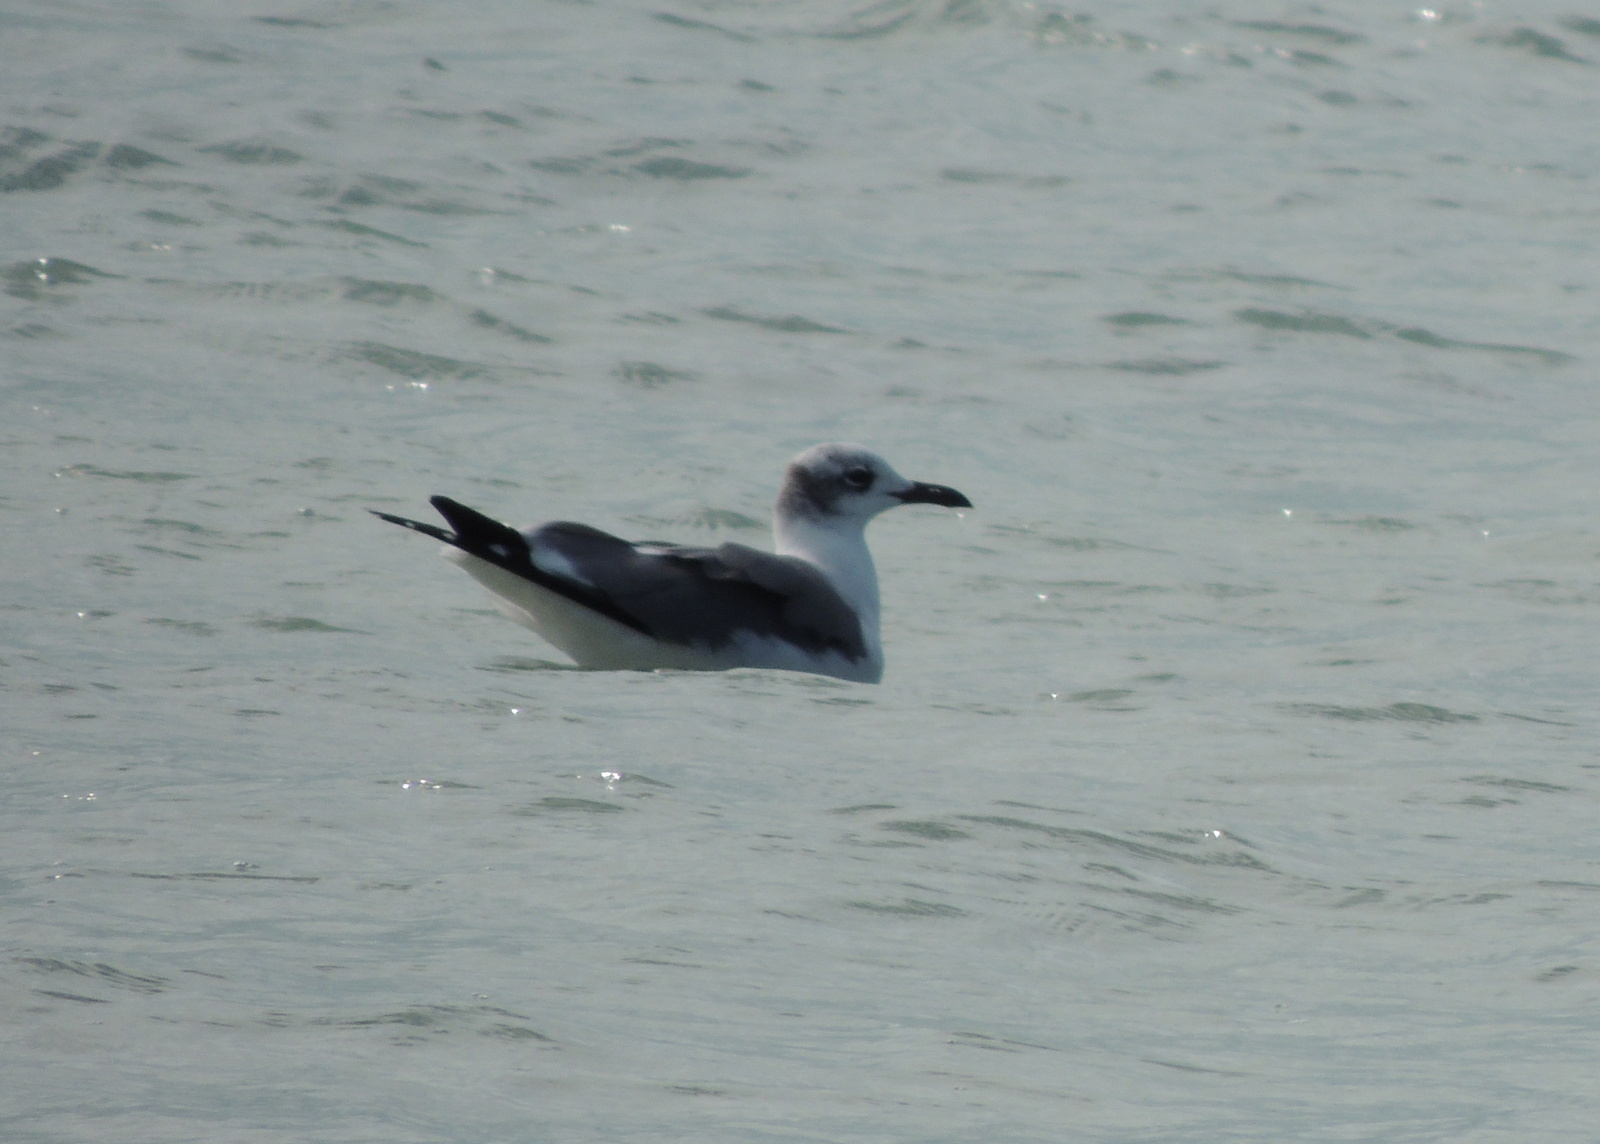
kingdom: Animalia
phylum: Chordata
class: Aves
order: Charadriiformes
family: Laridae
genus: Leucophaeus
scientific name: Leucophaeus atricilla
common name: Laughing gull
